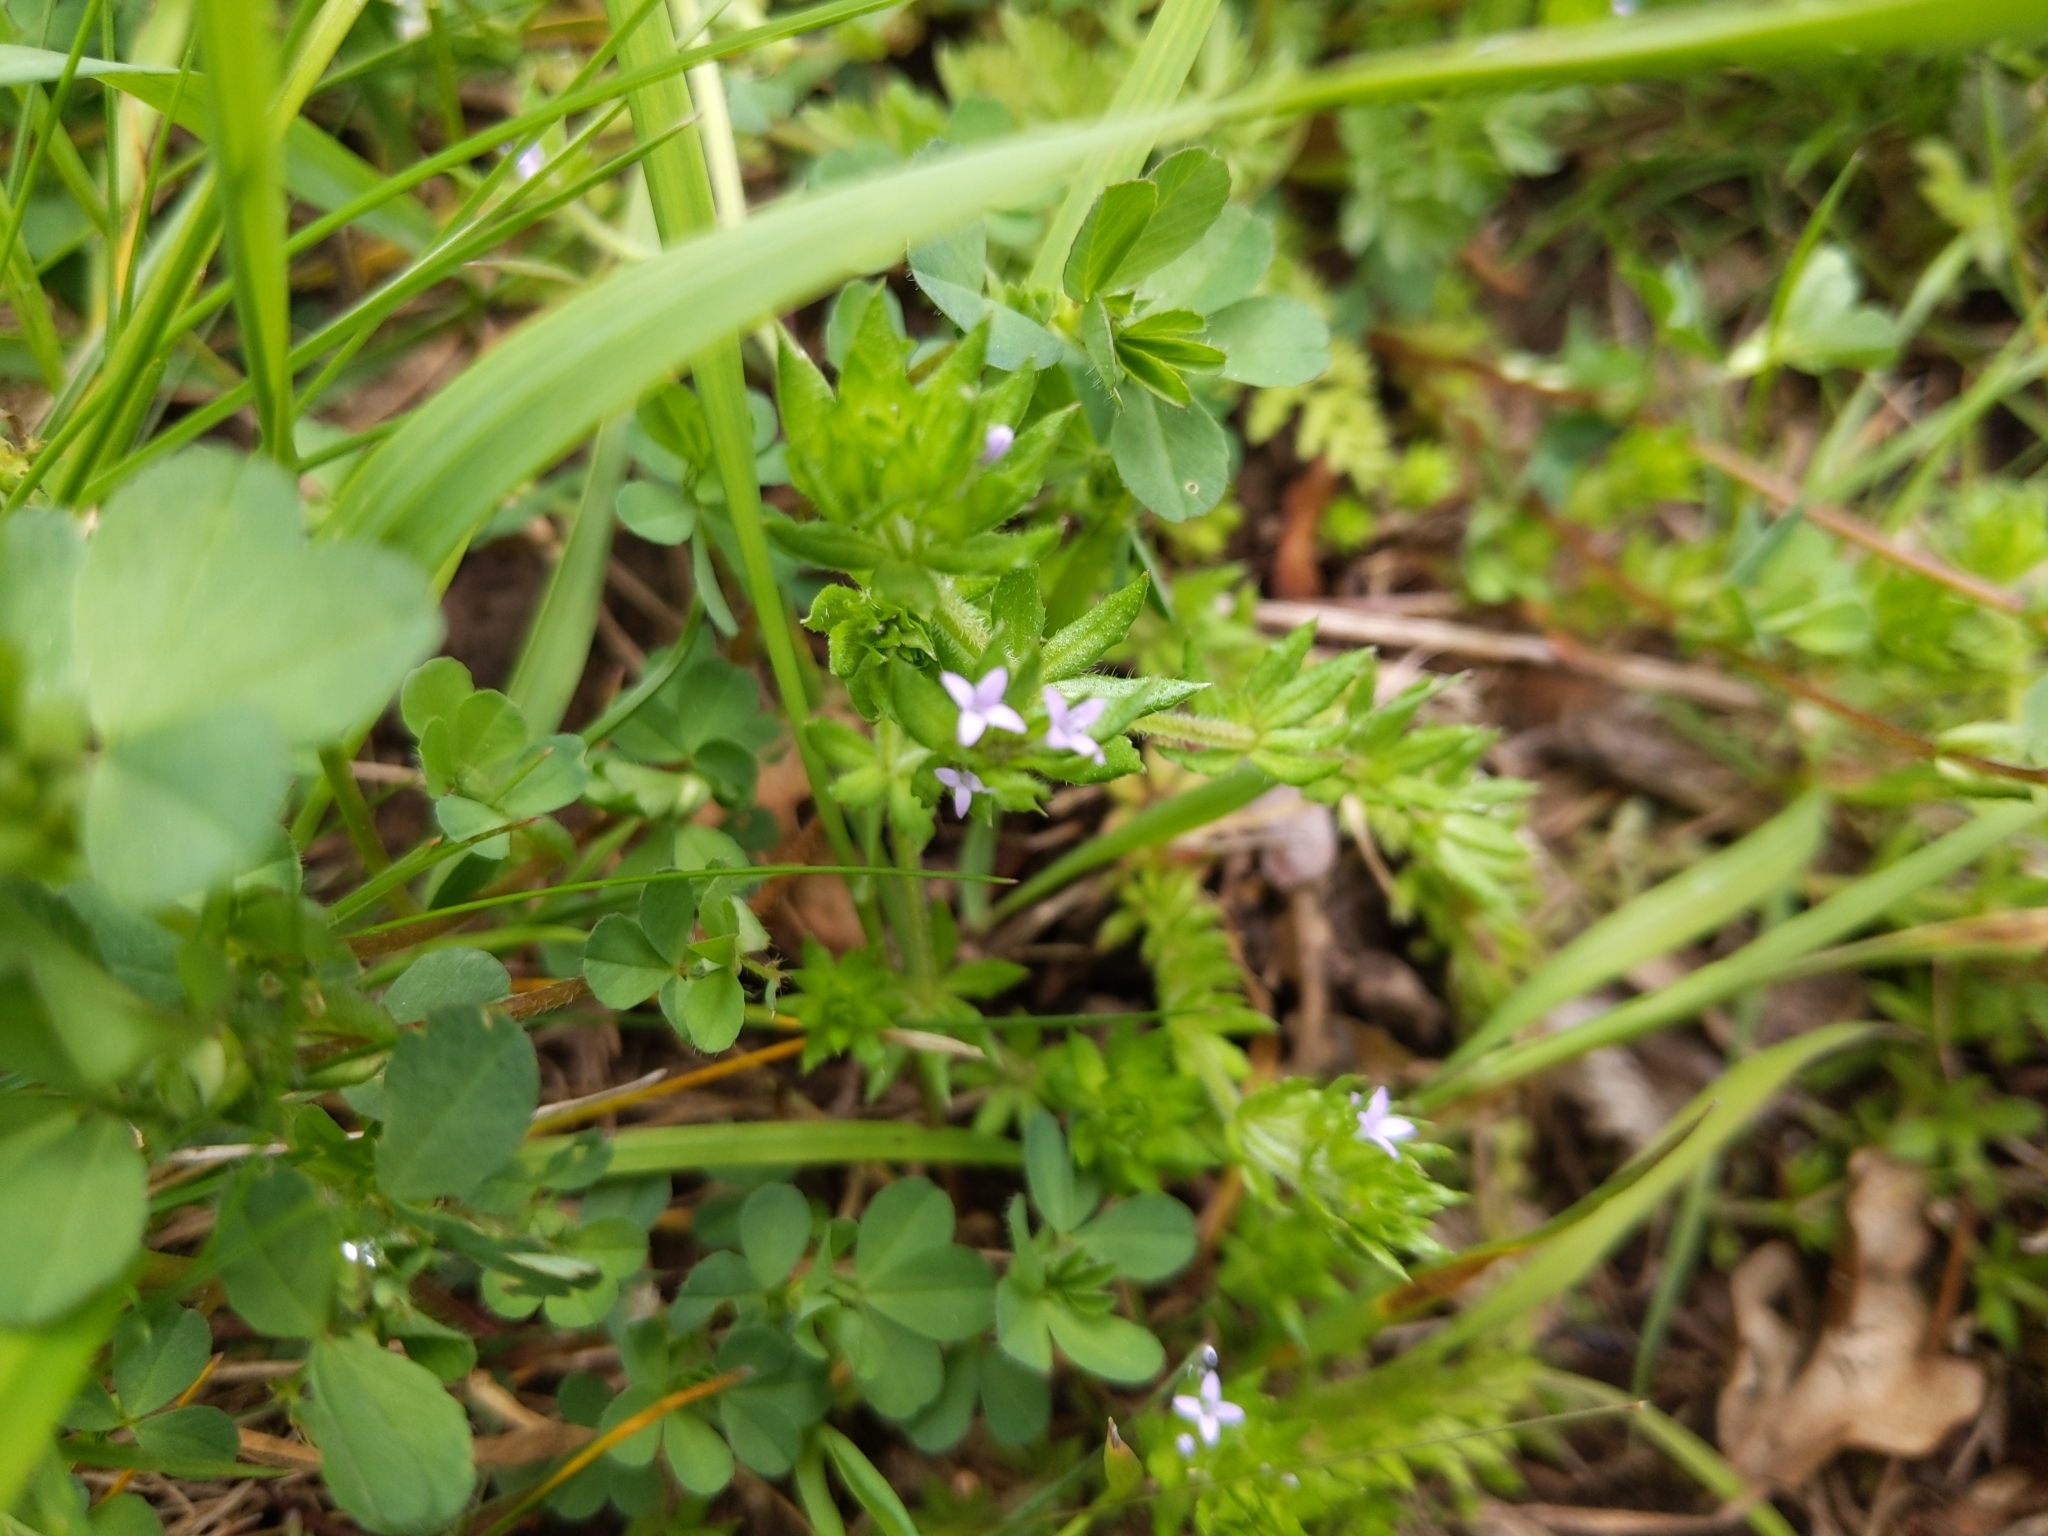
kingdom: Plantae
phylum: Tracheophyta
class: Magnoliopsida
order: Gentianales
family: Rubiaceae
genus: Sherardia
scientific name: Sherardia arvensis
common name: Field madder
